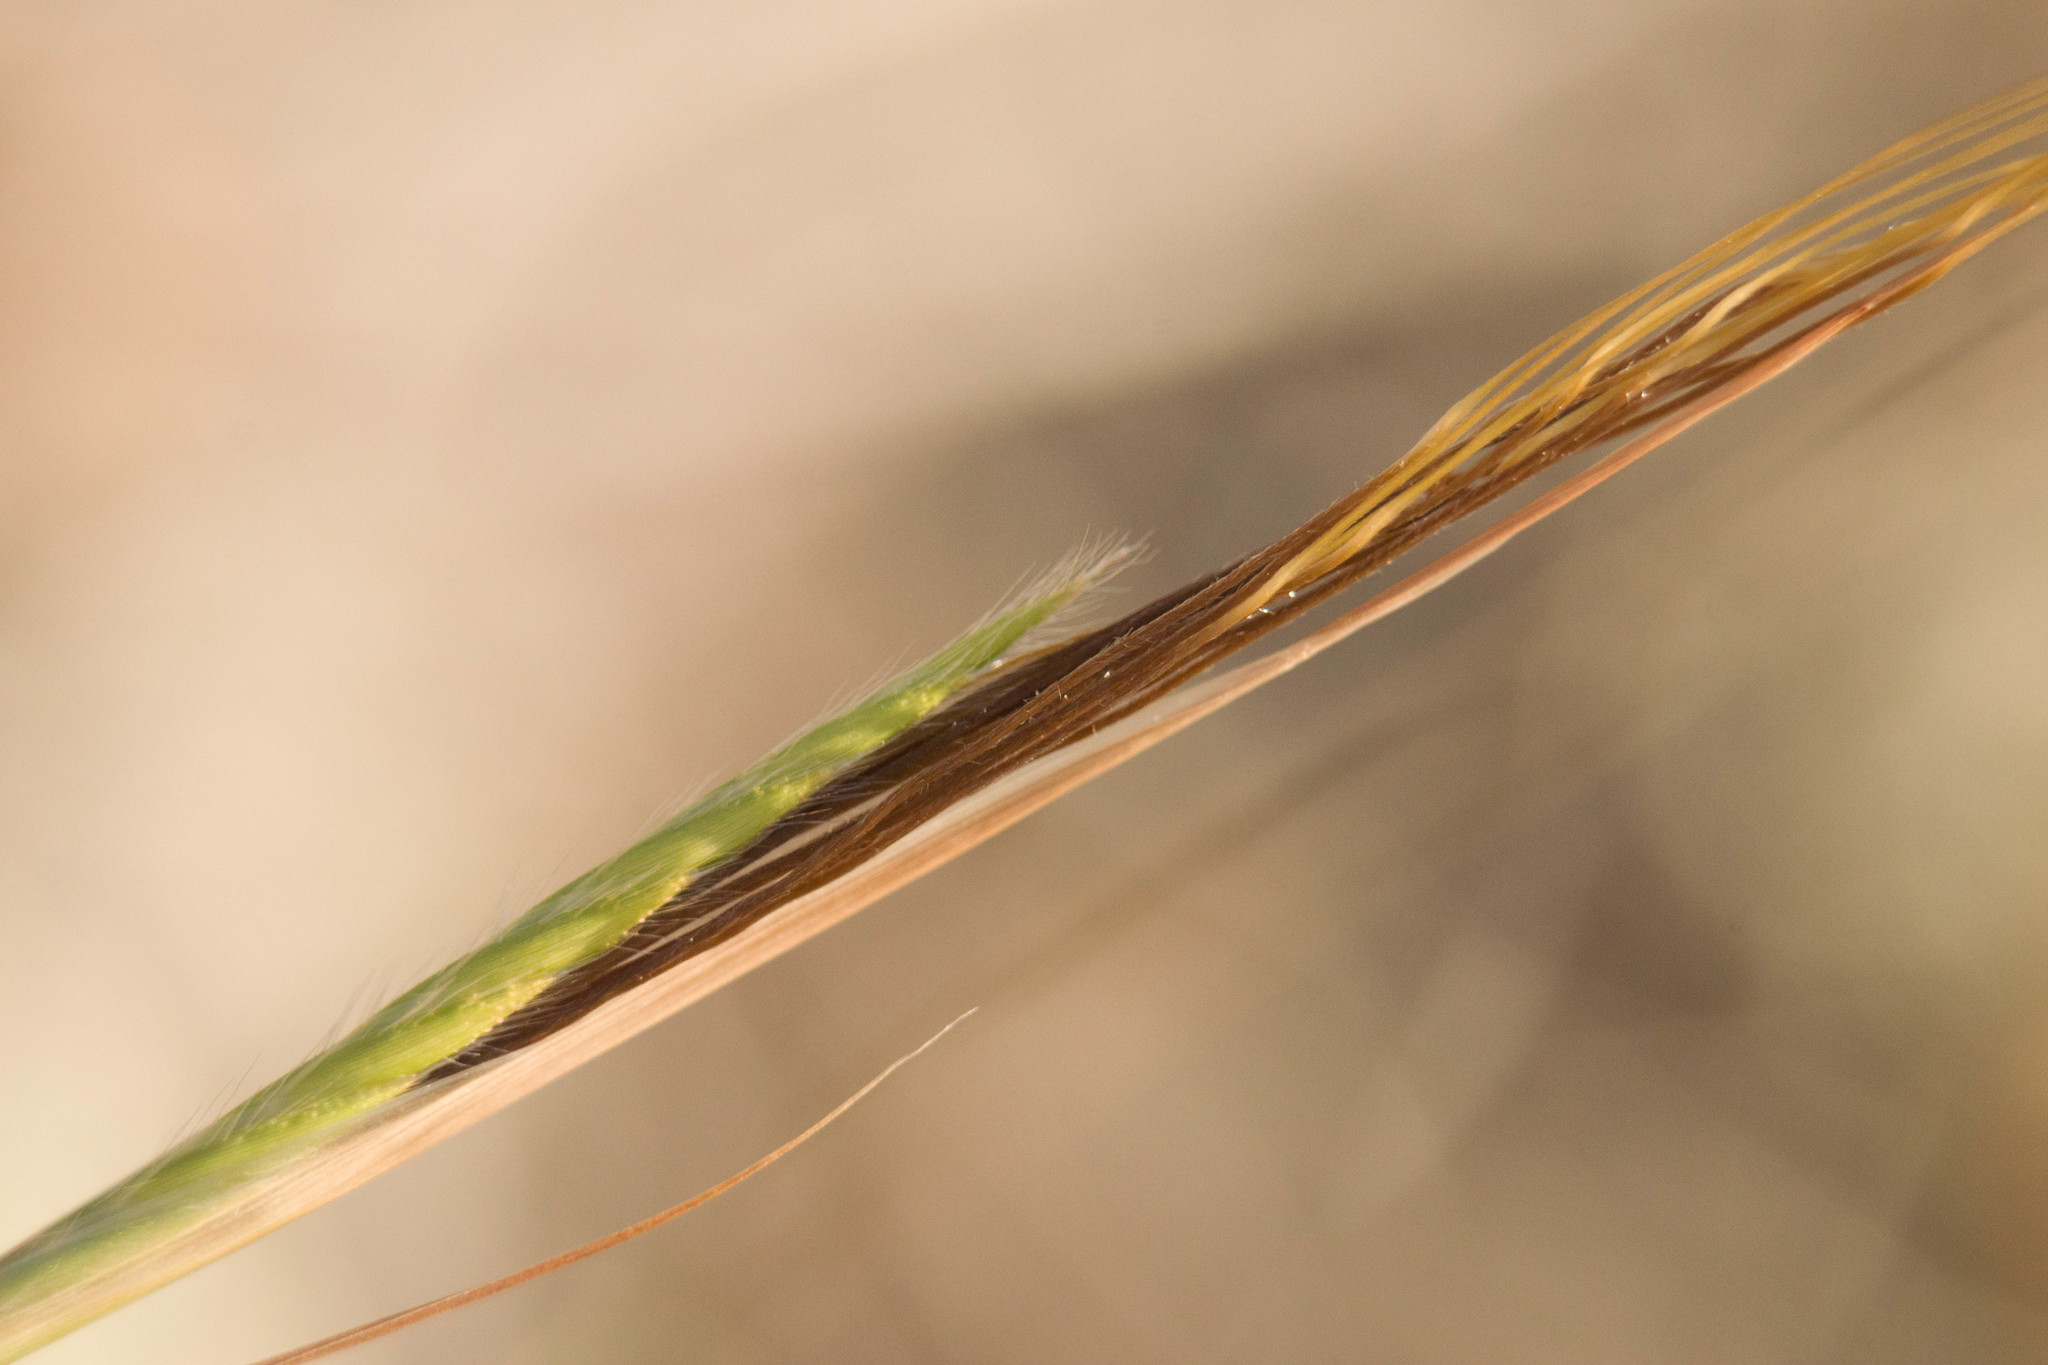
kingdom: Plantae
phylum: Tracheophyta
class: Liliopsida
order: Poales
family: Poaceae
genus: Heteropogon
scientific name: Heteropogon contortus
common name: Tanglehead
